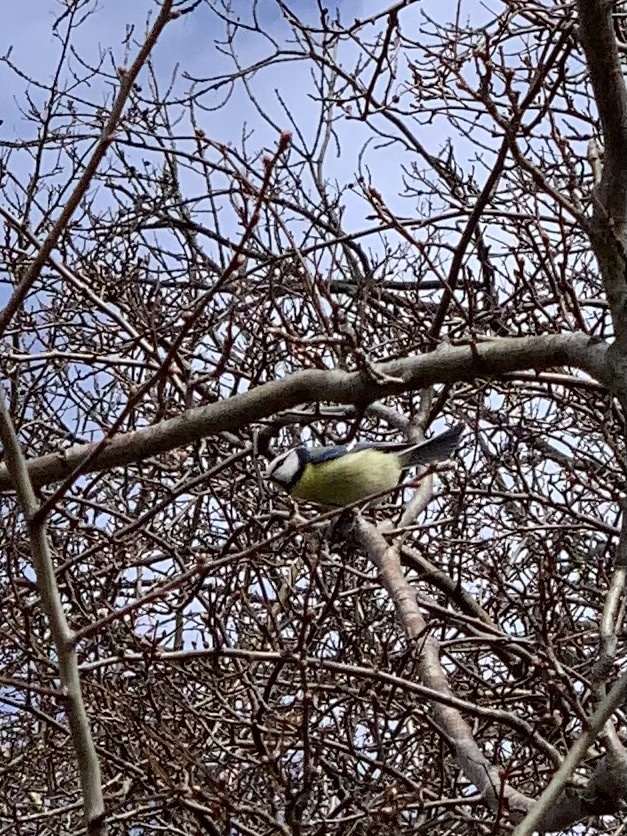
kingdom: Animalia
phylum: Chordata
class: Aves
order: Passeriformes
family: Paridae
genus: Cyanistes
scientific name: Cyanistes caeruleus
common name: Eurasian blue tit
